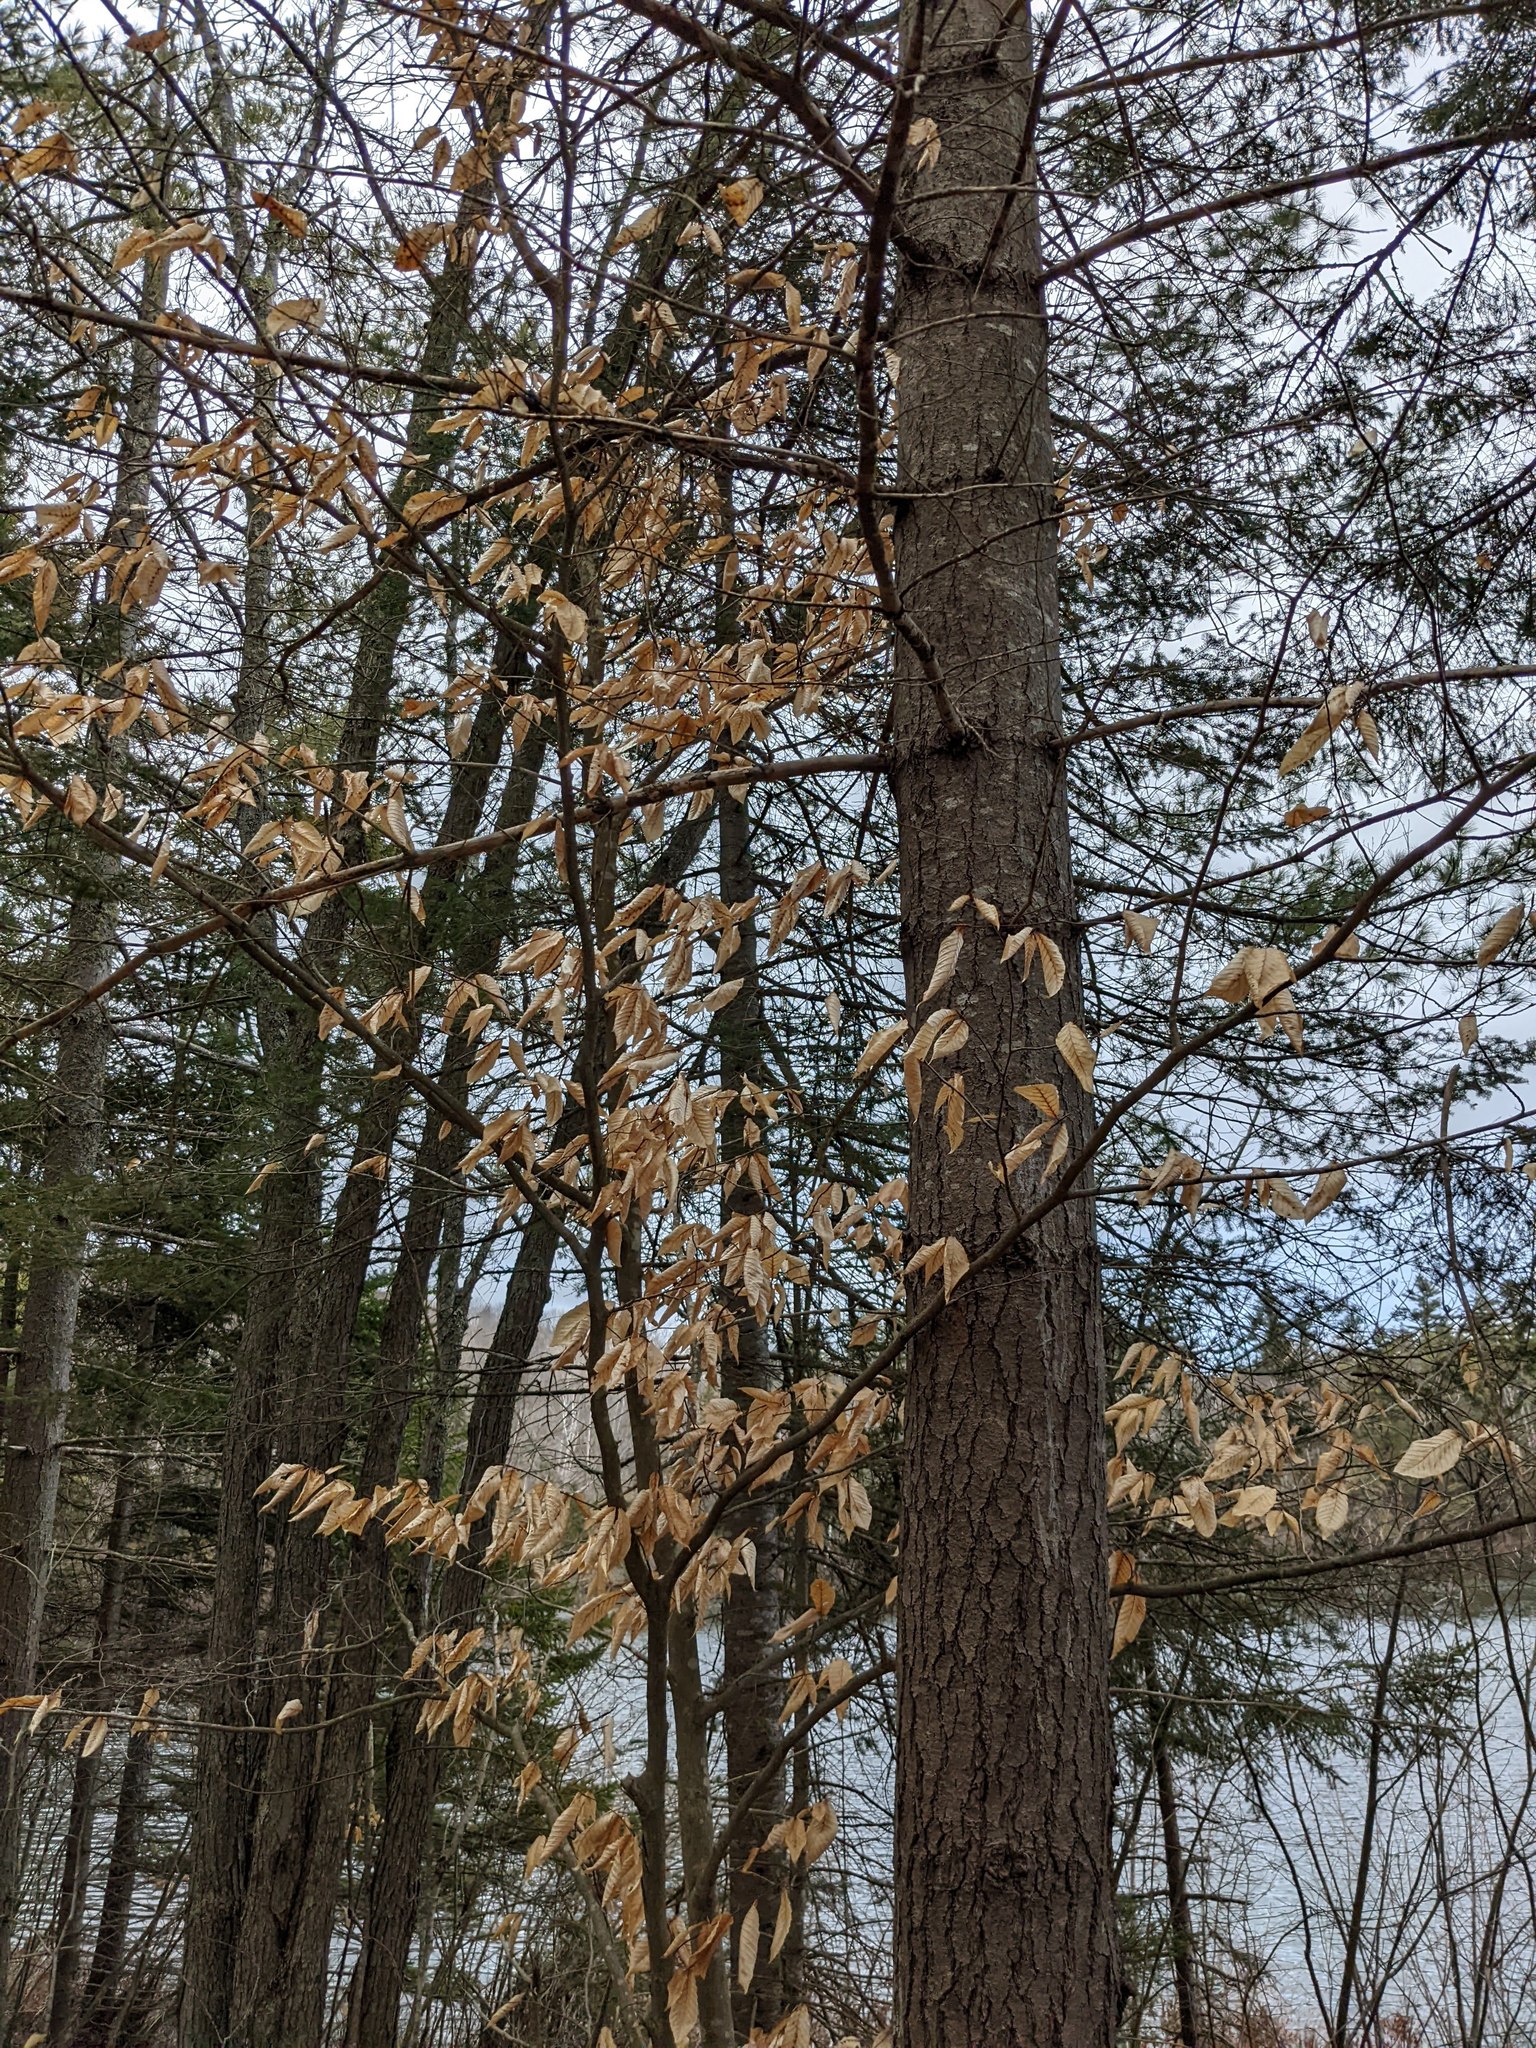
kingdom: Plantae
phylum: Tracheophyta
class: Magnoliopsida
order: Fagales
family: Fagaceae
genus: Fagus
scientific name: Fagus grandifolia
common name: American beech
